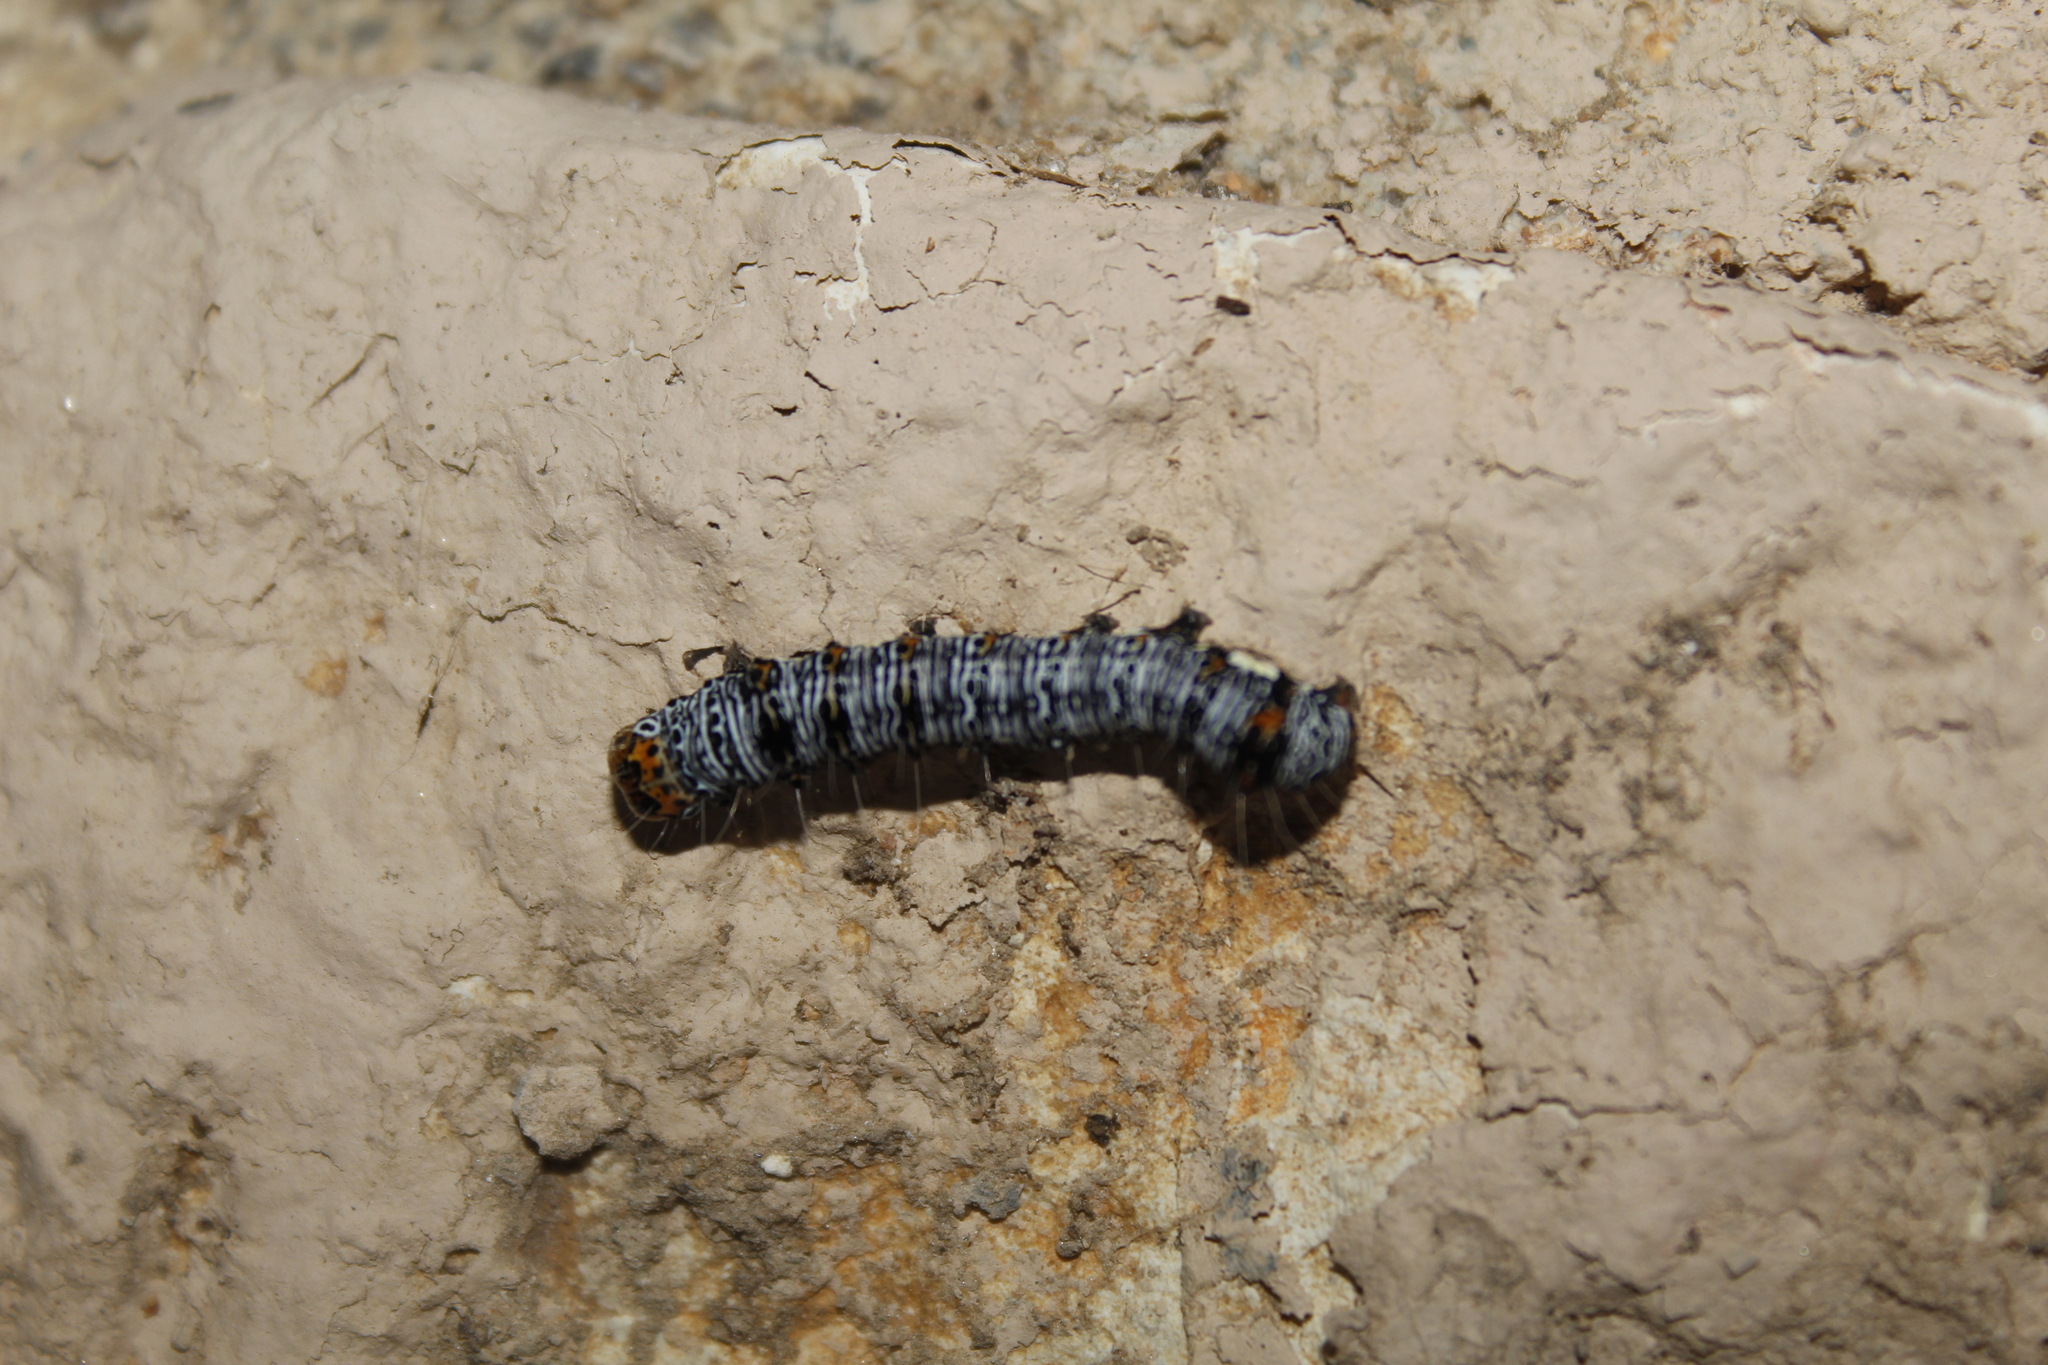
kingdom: Animalia
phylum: Arthropoda
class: Insecta
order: Lepidoptera
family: Noctuidae
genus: Alypia
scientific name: Alypia octomaculata
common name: Eight-spotted forester
